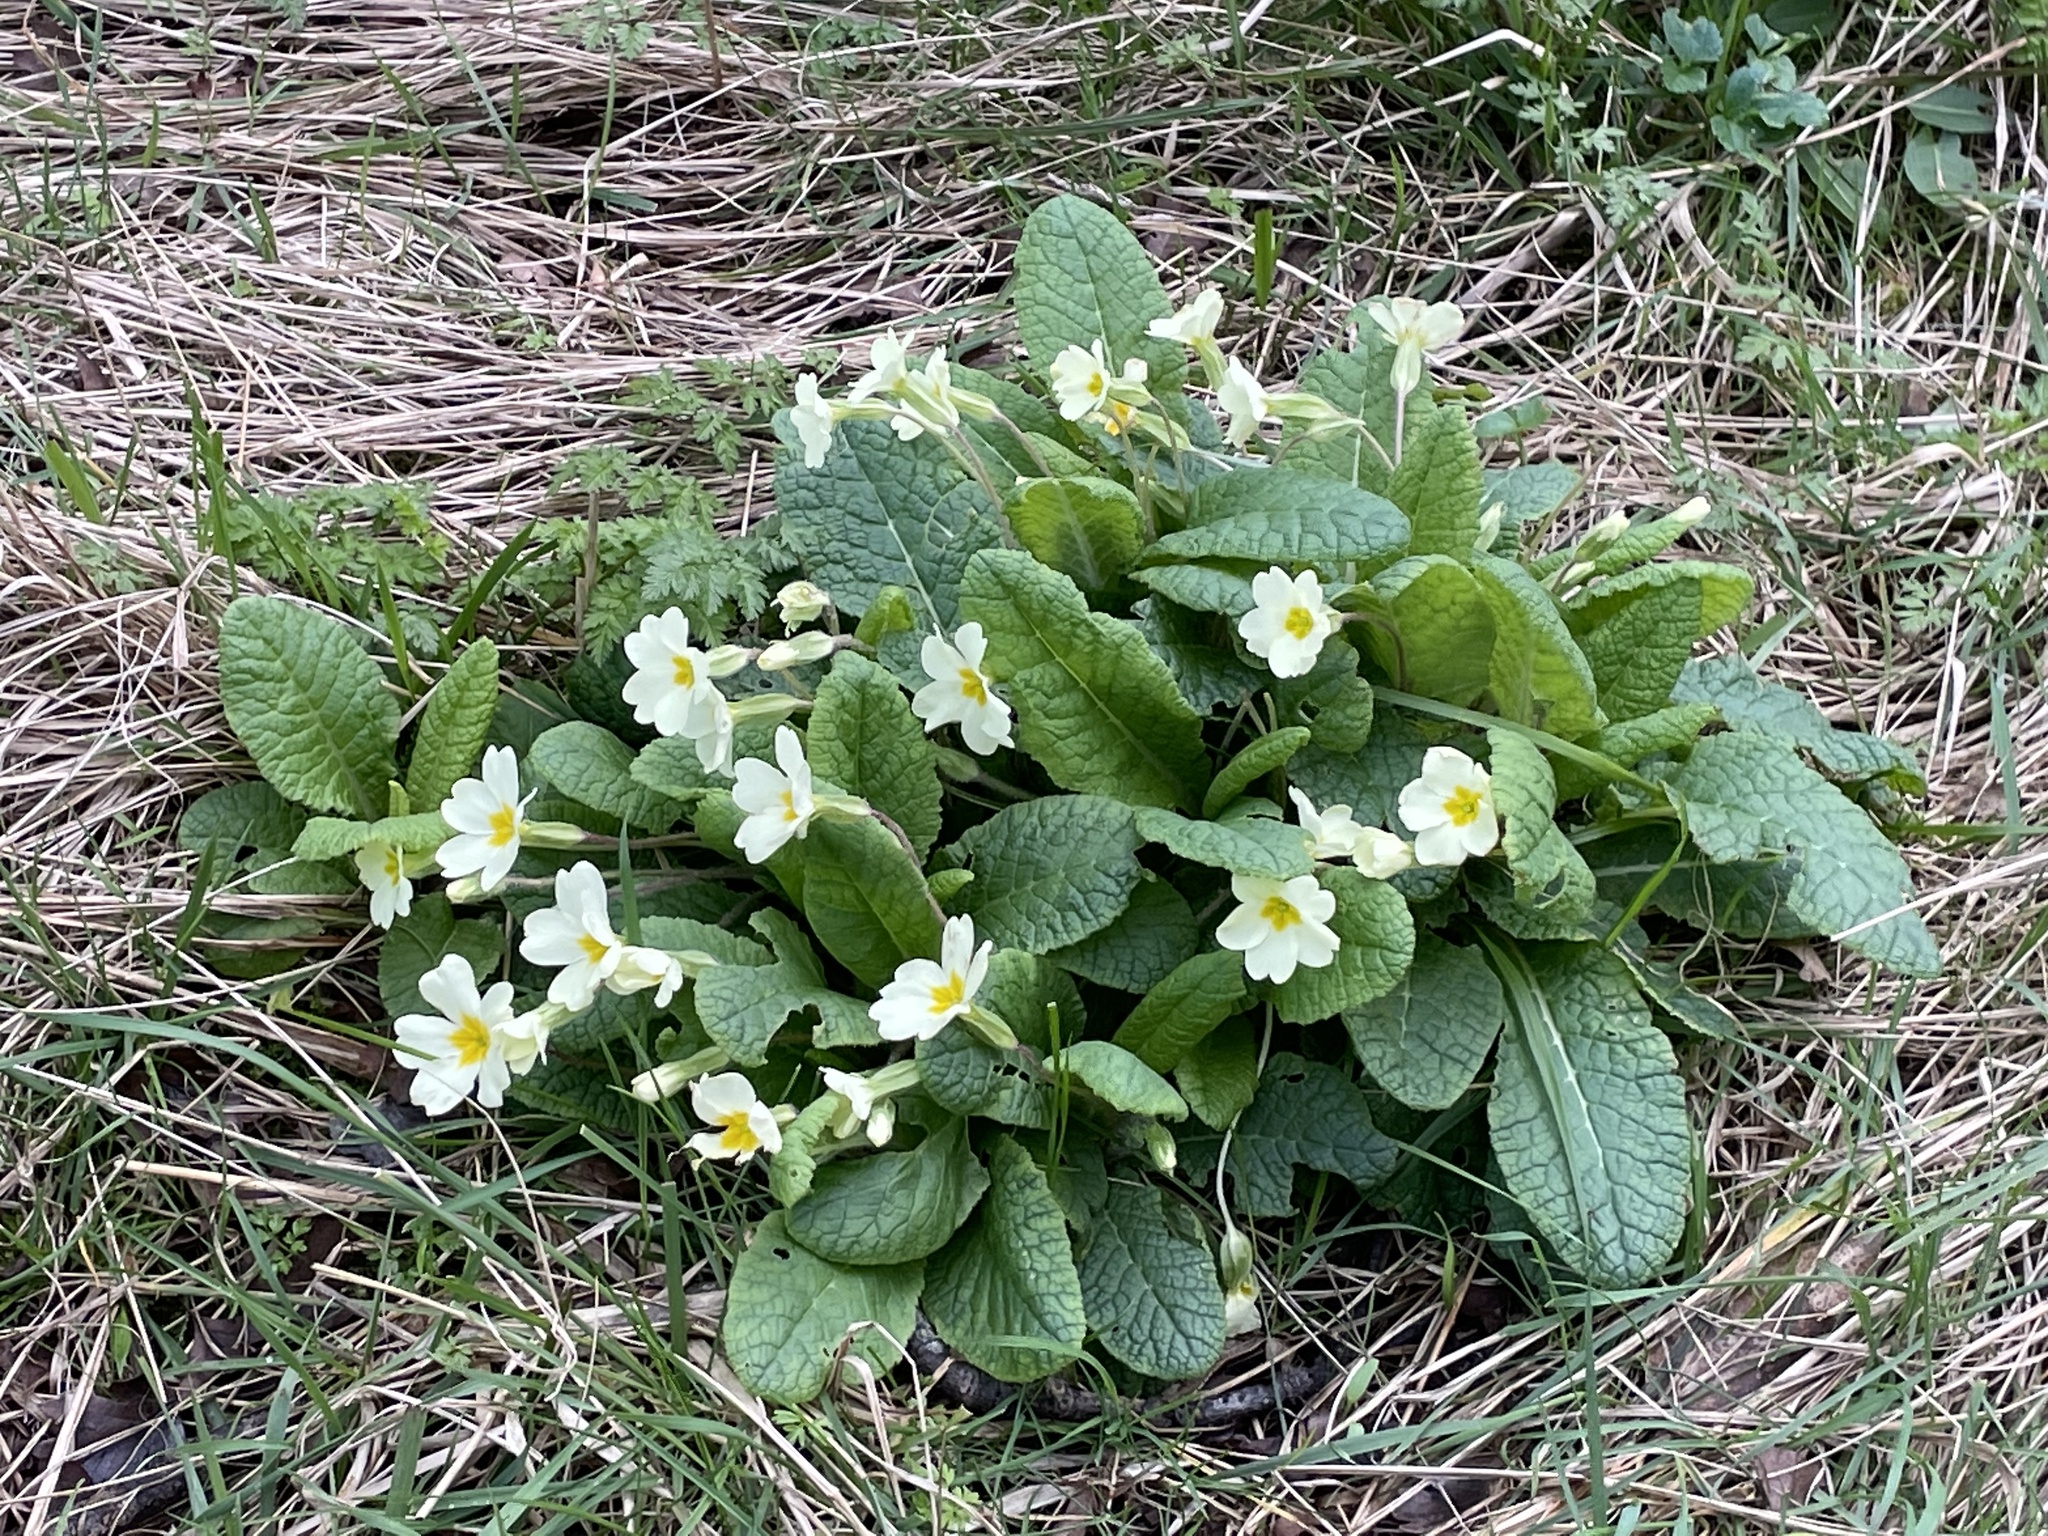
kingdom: Plantae
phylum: Tracheophyta
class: Magnoliopsida
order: Ericales
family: Primulaceae
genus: Primula
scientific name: Primula vulgaris
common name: Primrose
